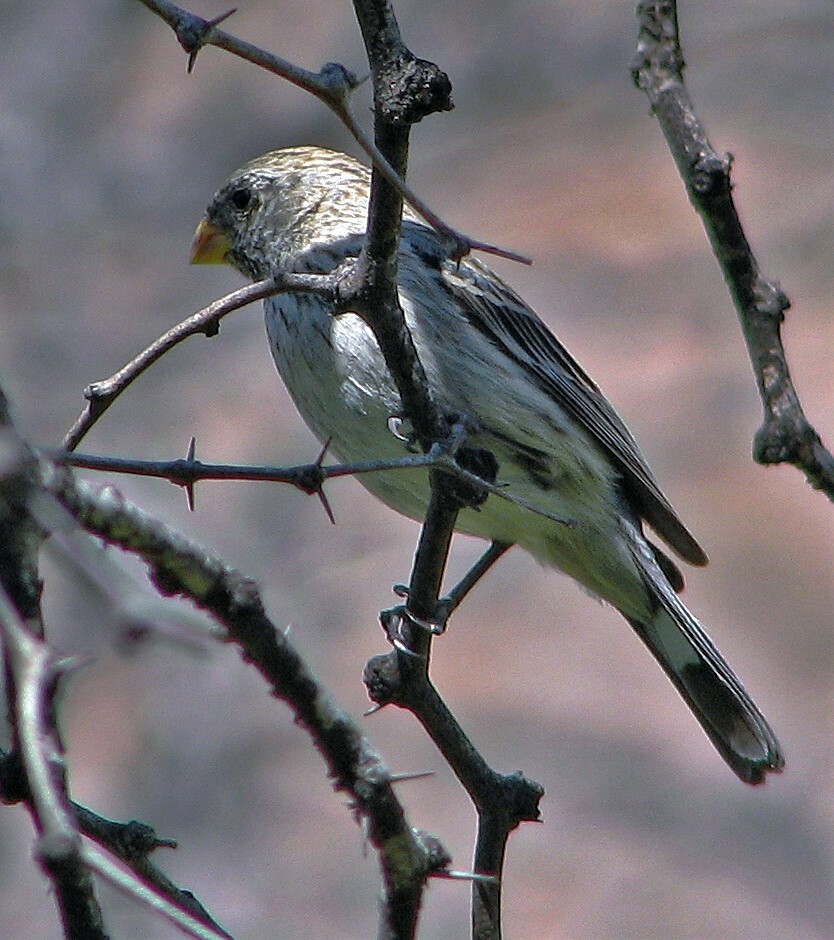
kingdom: Animalia
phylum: Chordata
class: Aves
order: Passeriformes
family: Thraupidae
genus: Catamenia
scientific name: Catamenia analis
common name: Band-tailed seedeater
